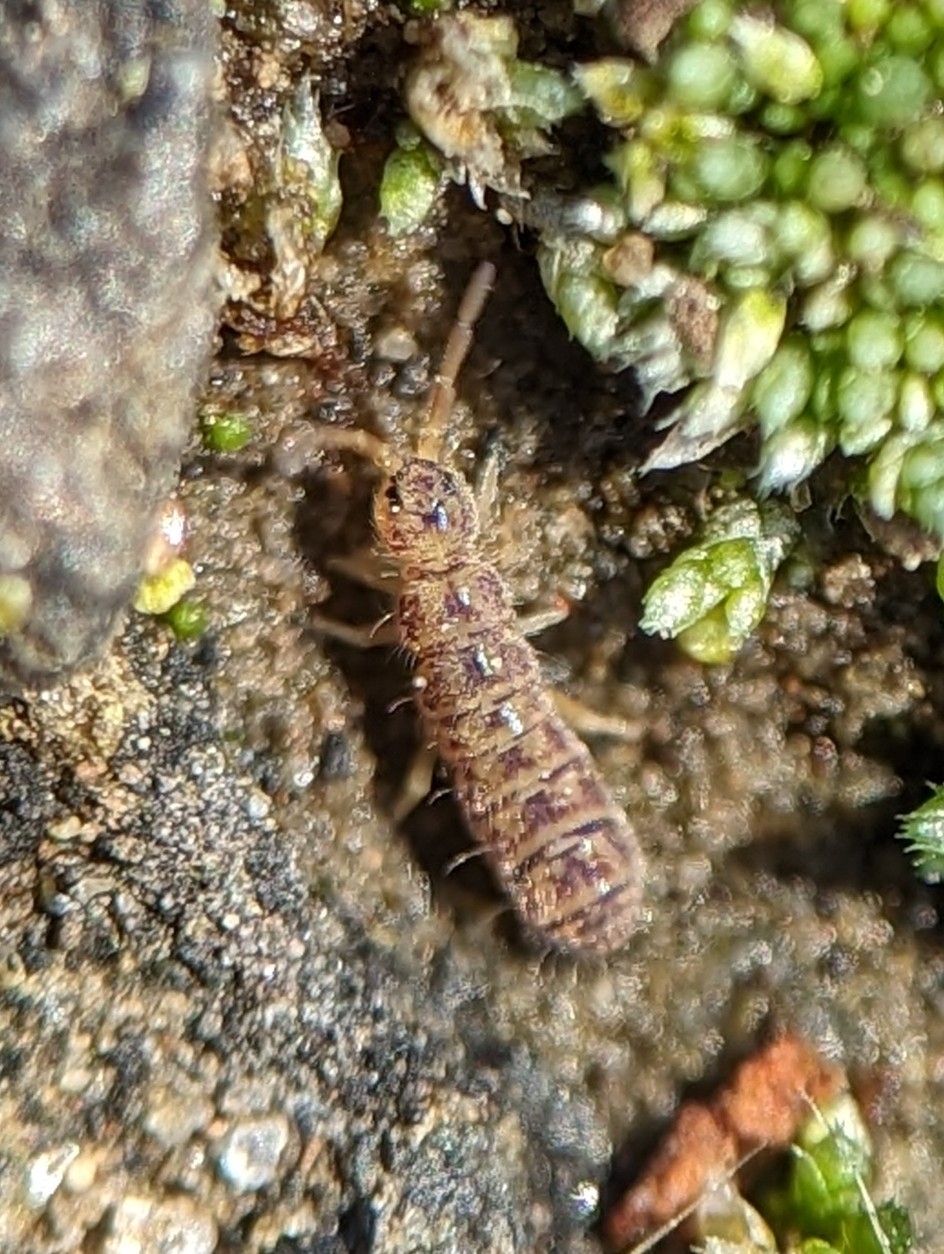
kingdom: Animalia
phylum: Arthropoda
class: Collembola
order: Entomobryomorpha
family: Isotomidae
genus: Isotoma
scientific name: Isotoma delta
